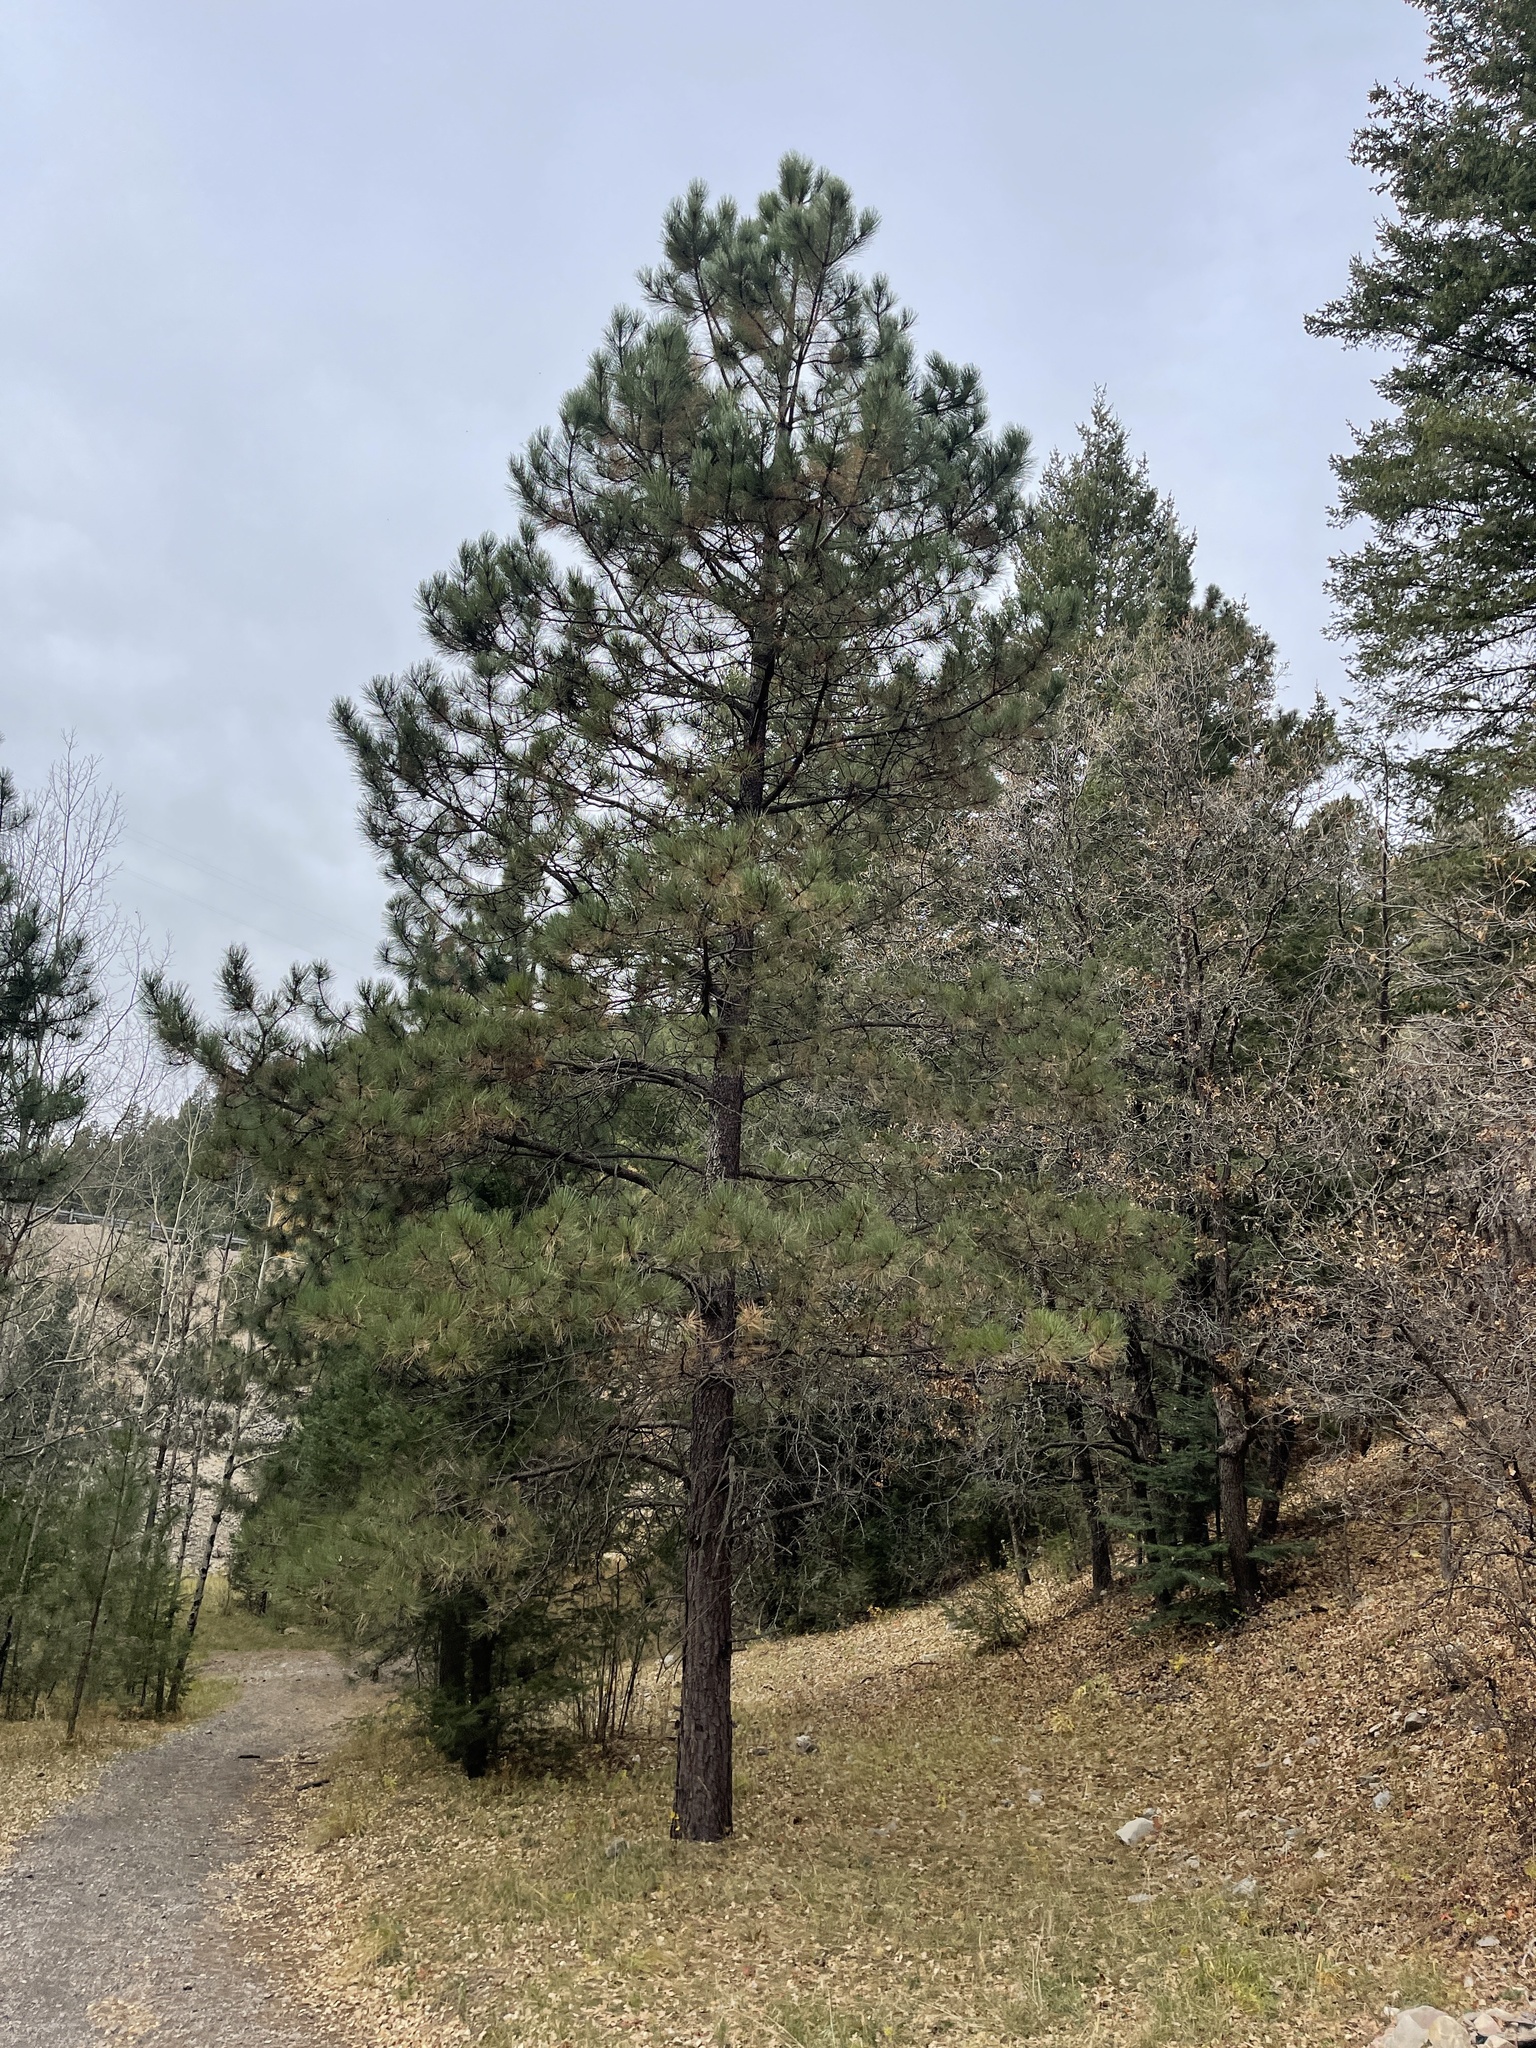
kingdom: Plantae
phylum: Tracheophyta
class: Pinopsida
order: Pinales
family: Pinaceae
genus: Pinus
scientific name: Pinus ponderosa
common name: Western yellow-pine
